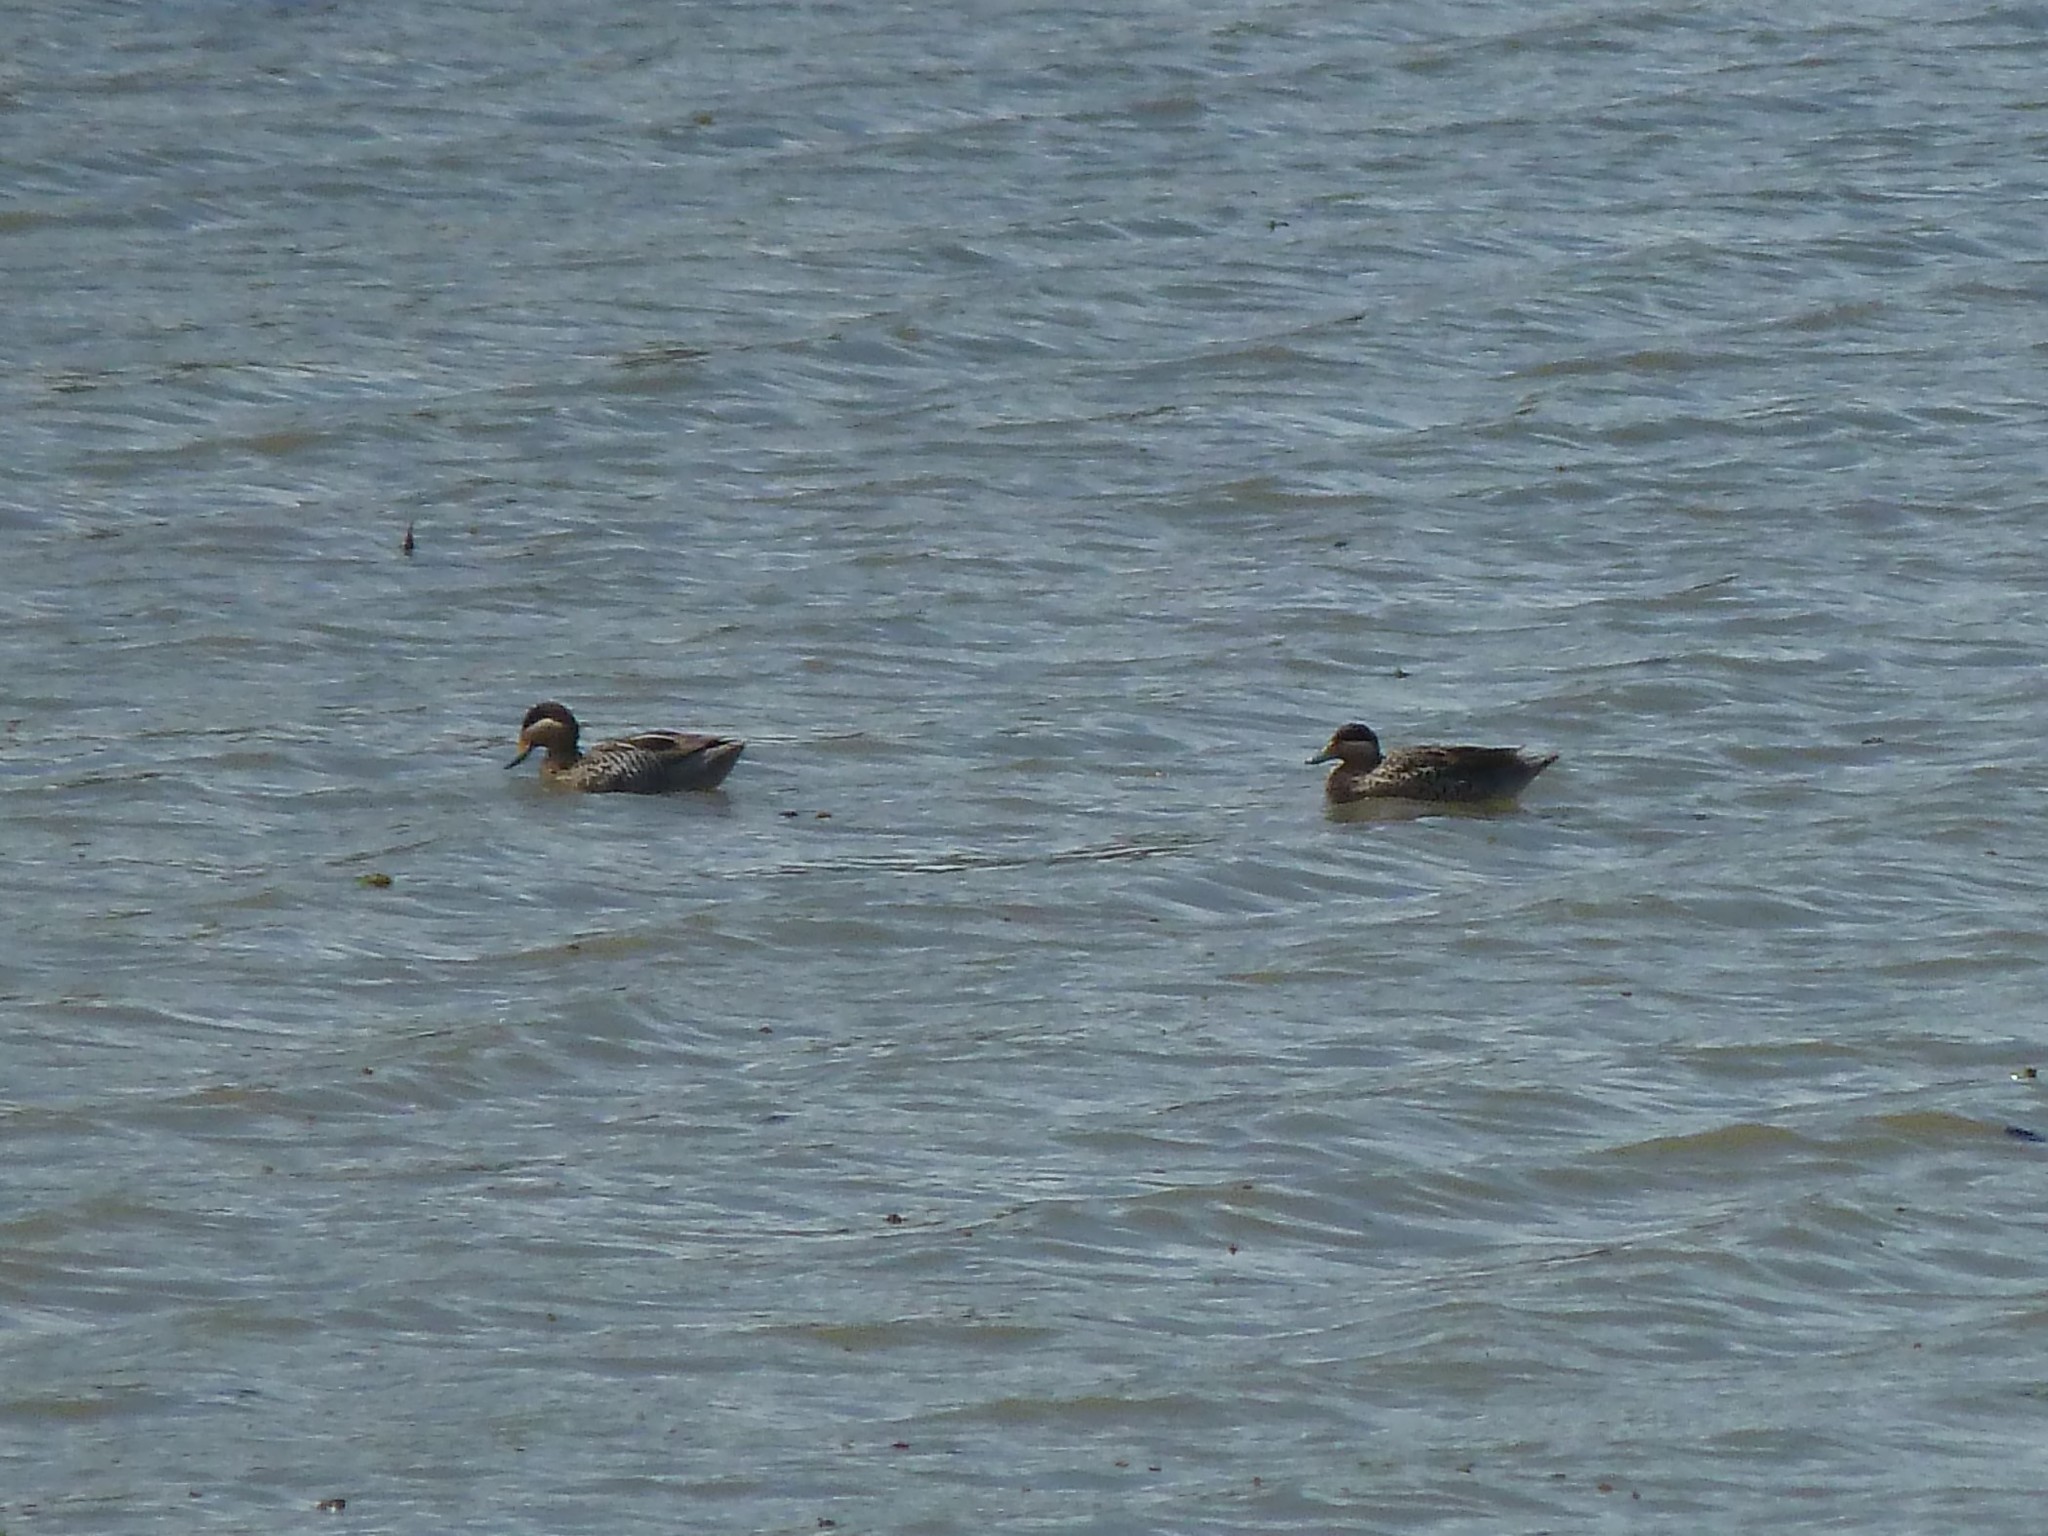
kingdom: Animalia
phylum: Chordata
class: Aves
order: Anseriformes
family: Anatidae
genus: Spatula
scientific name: Spatula versicolor
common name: Silver teal
